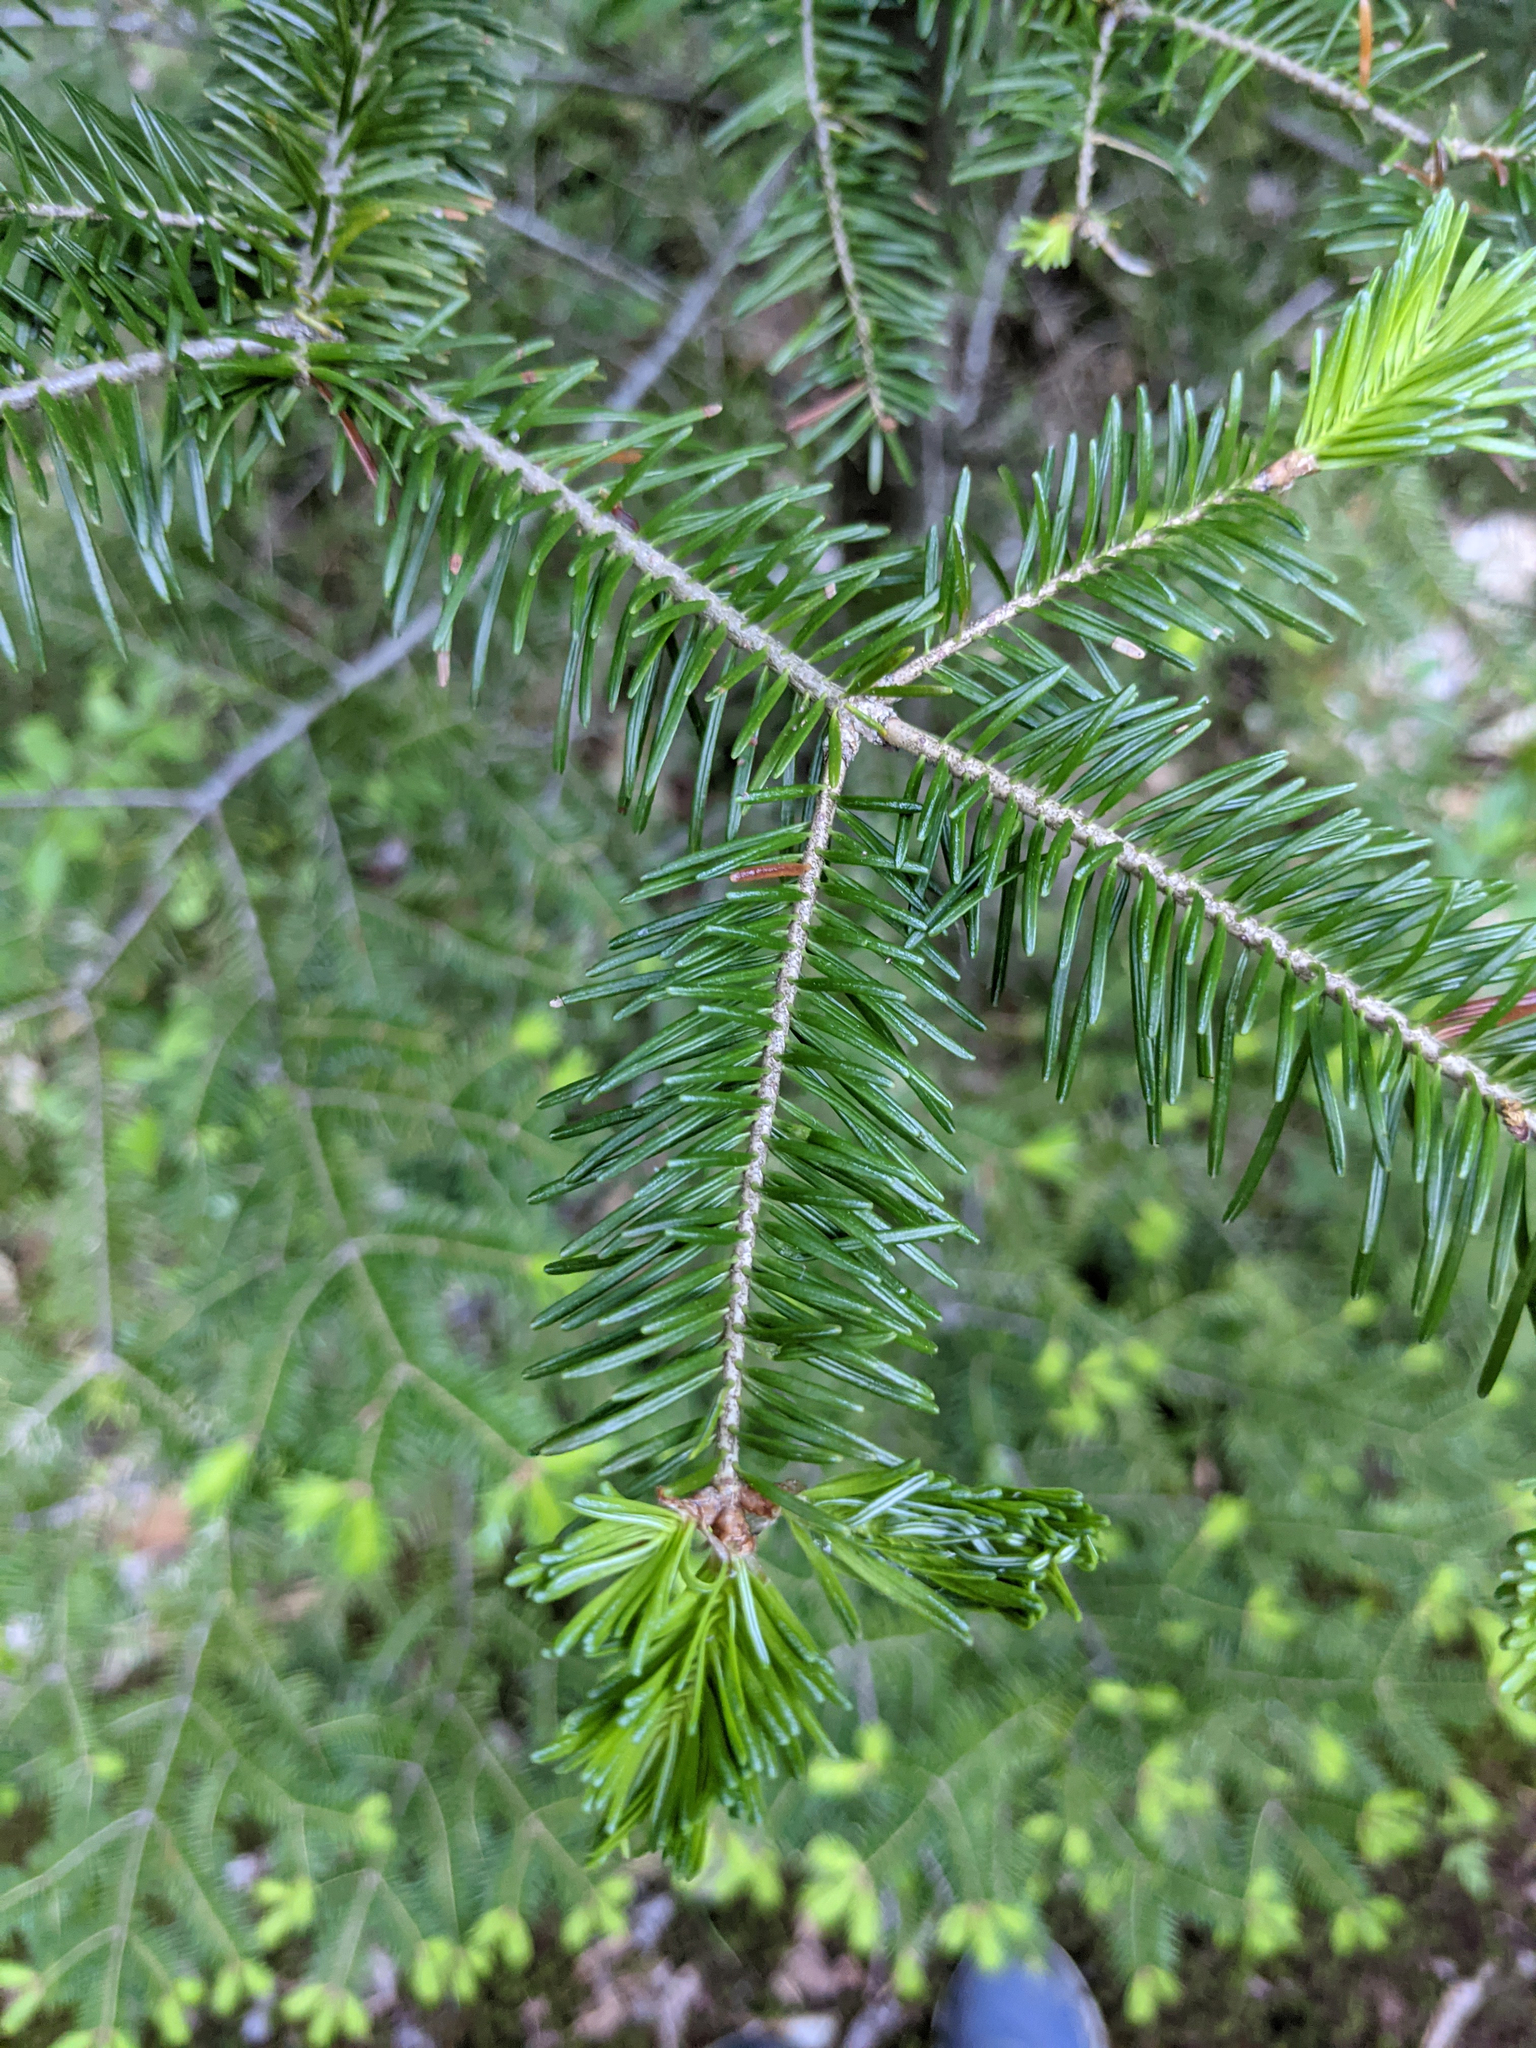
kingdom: Plantae
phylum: Tracheophyta
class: Pinopsida
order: Pinales
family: Pinaceae
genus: Abies
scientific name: Abies balsamea
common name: Balsam fir
